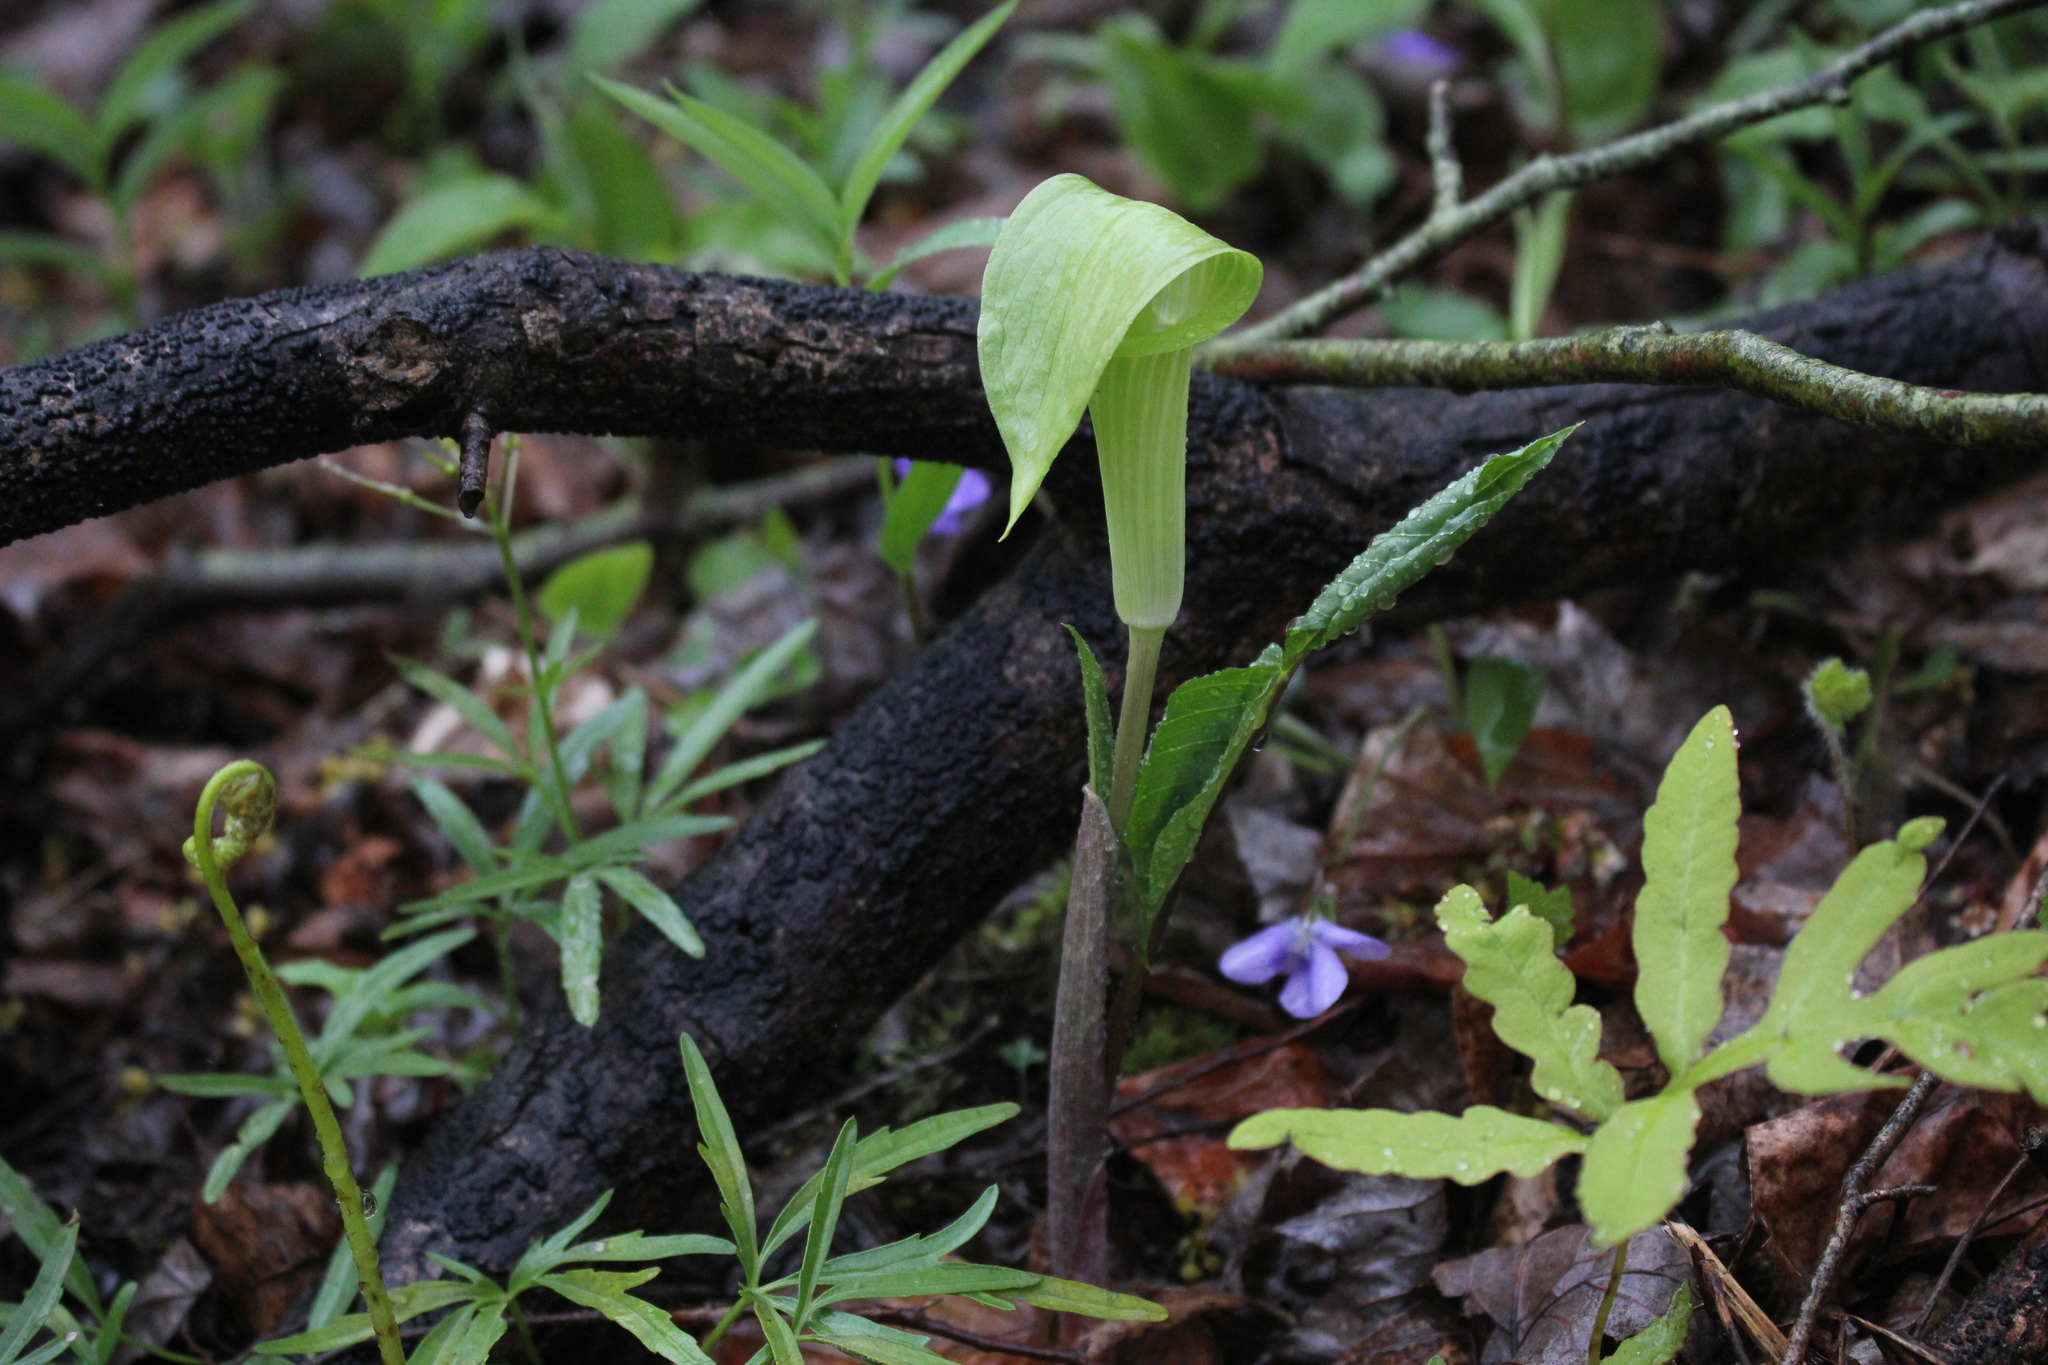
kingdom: Plantae
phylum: Tracheophyta
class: Liliopsida
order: Alismatales
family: Araceae
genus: Arisaema
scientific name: Arisaema triphyllum
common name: Jack-in-the-pulpit
